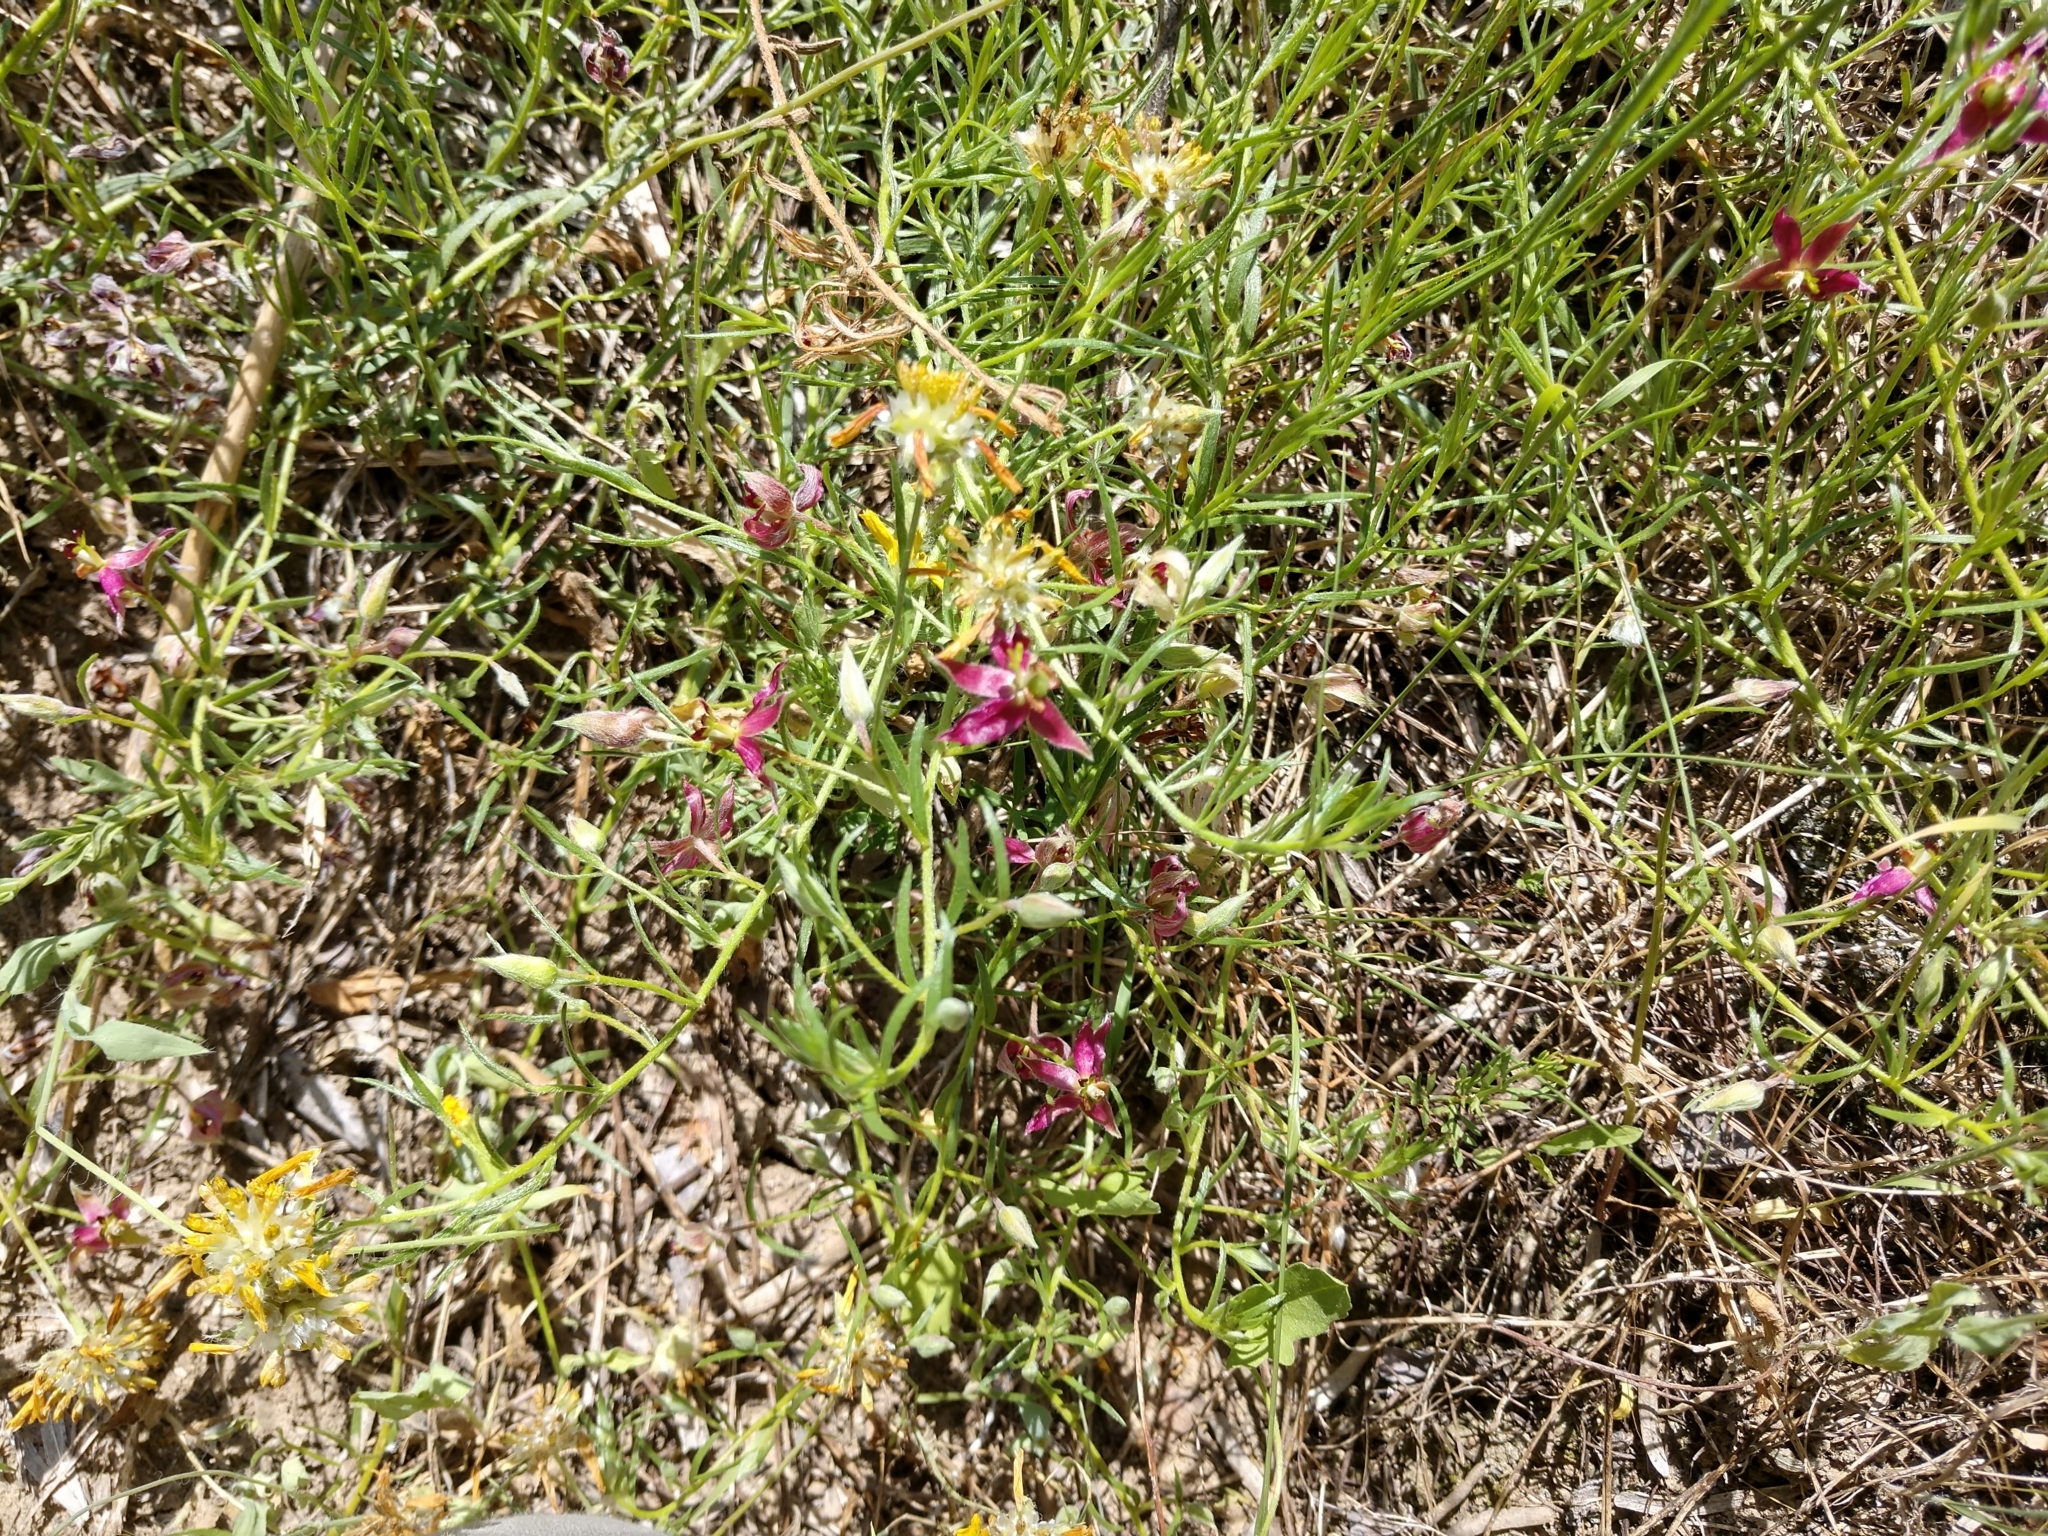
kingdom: Plantae
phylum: Tracheophyta
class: Magnoliopsida
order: Zygophyllales
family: Krameriaceae
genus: Krameria
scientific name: Krameria lanceolata
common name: Ratany
